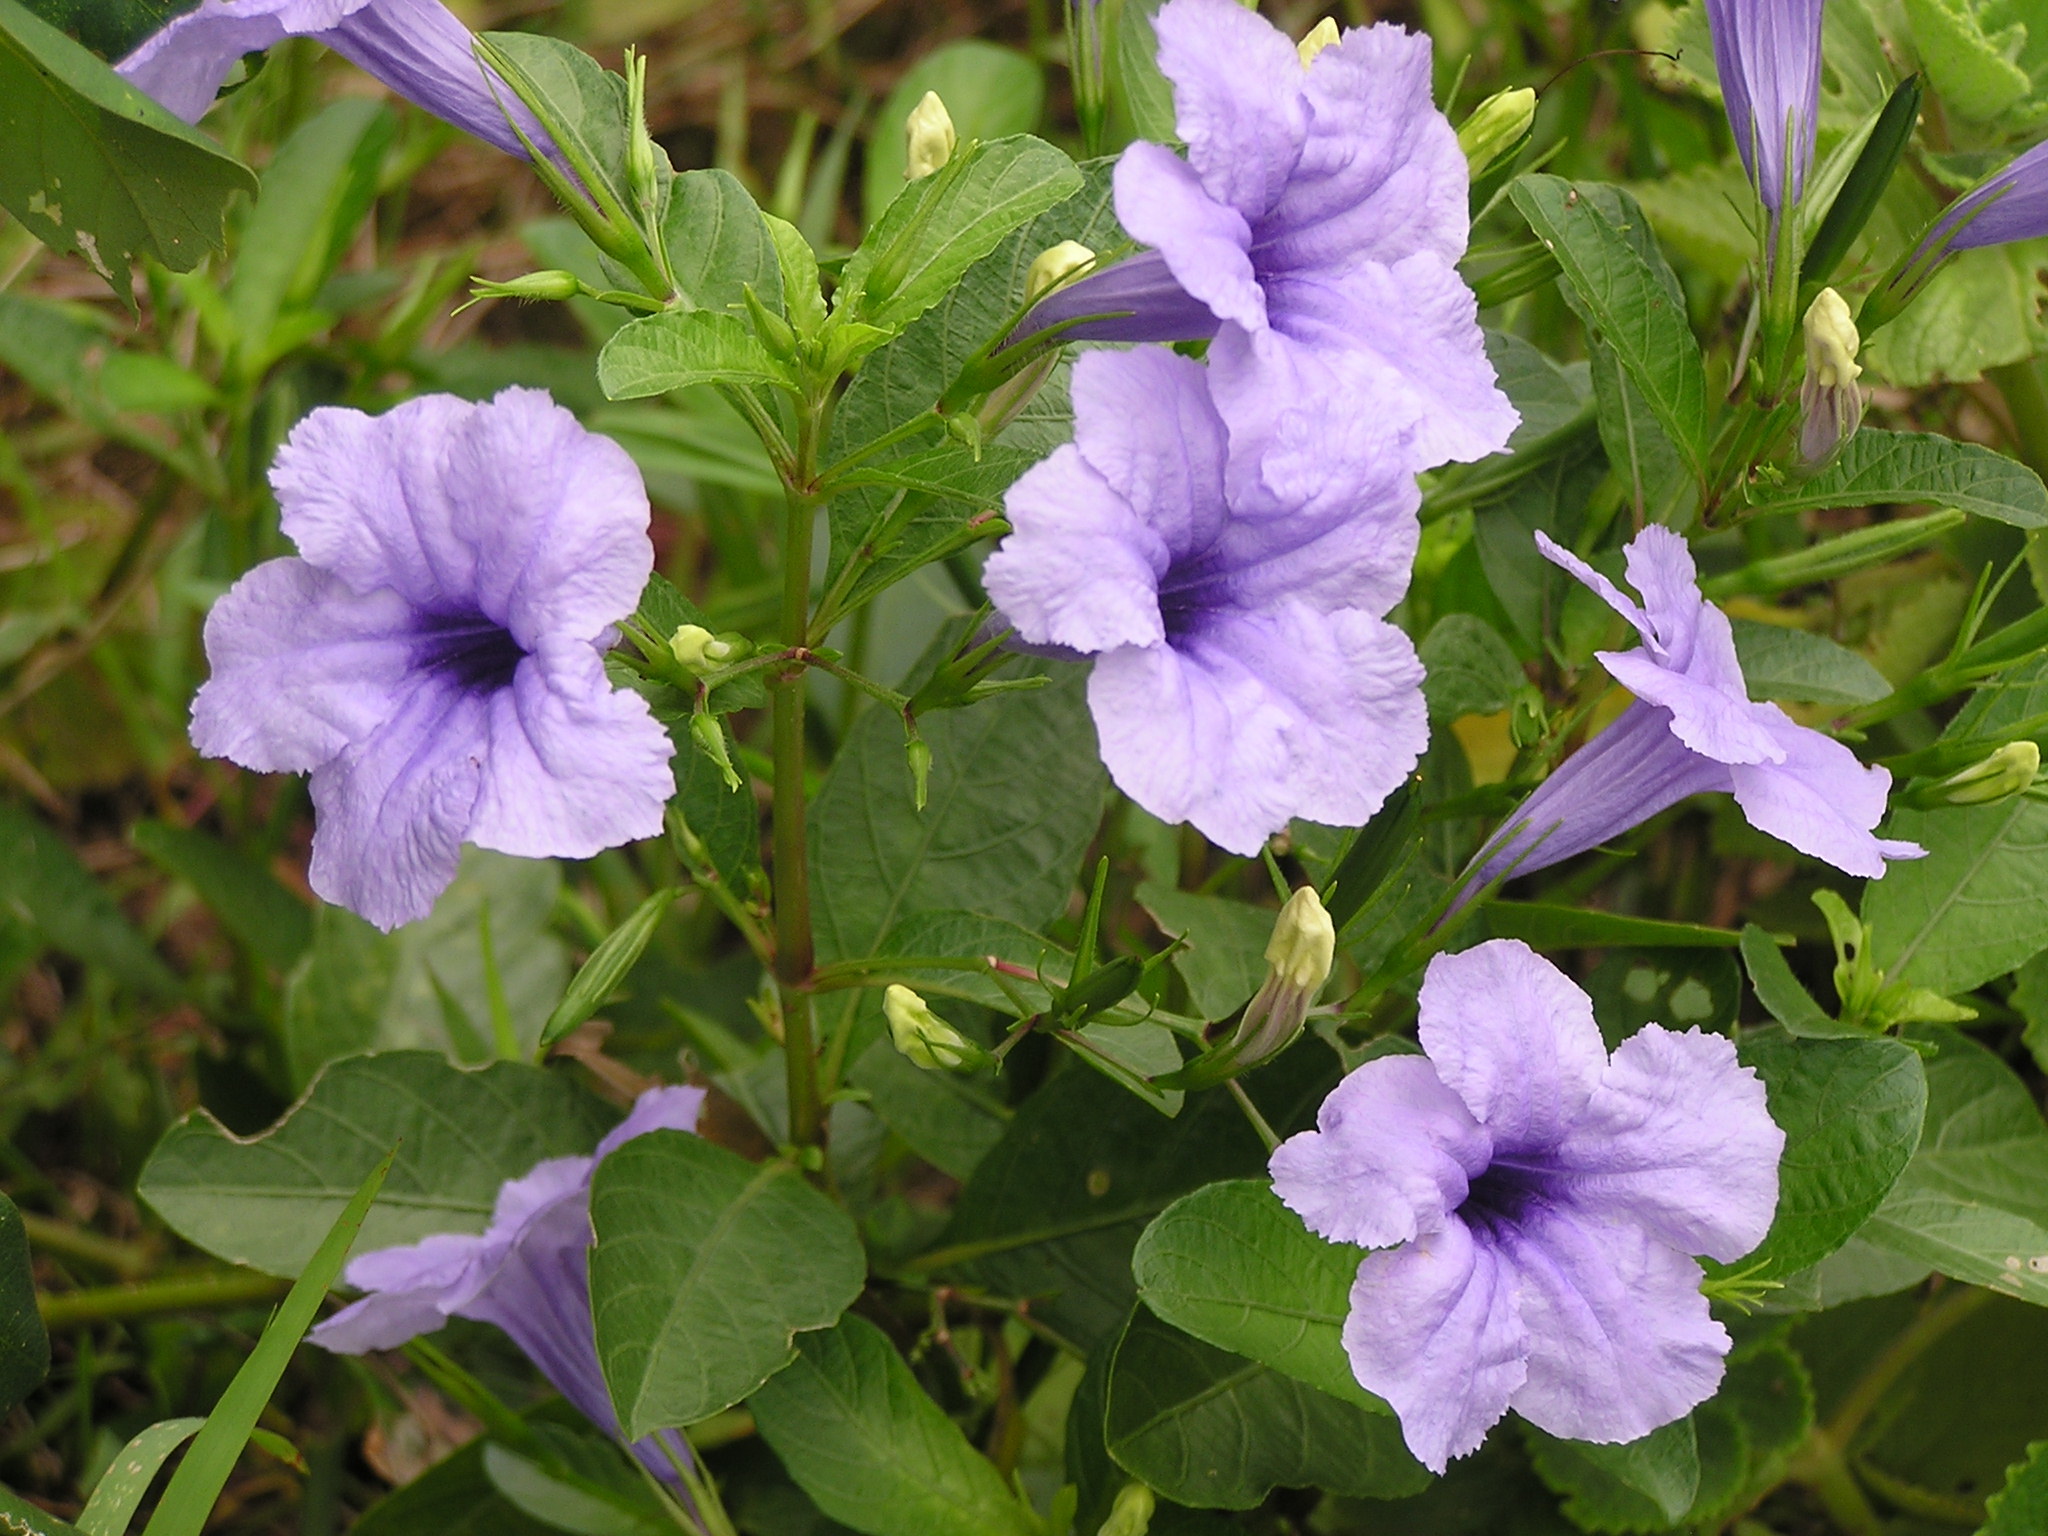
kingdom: Plantae
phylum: Tracheophyta
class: Magnoliopsida
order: Lamiales
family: Acanthaceae
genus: Ruellia
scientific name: Ruellia tuberosa
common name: Devil's bit
